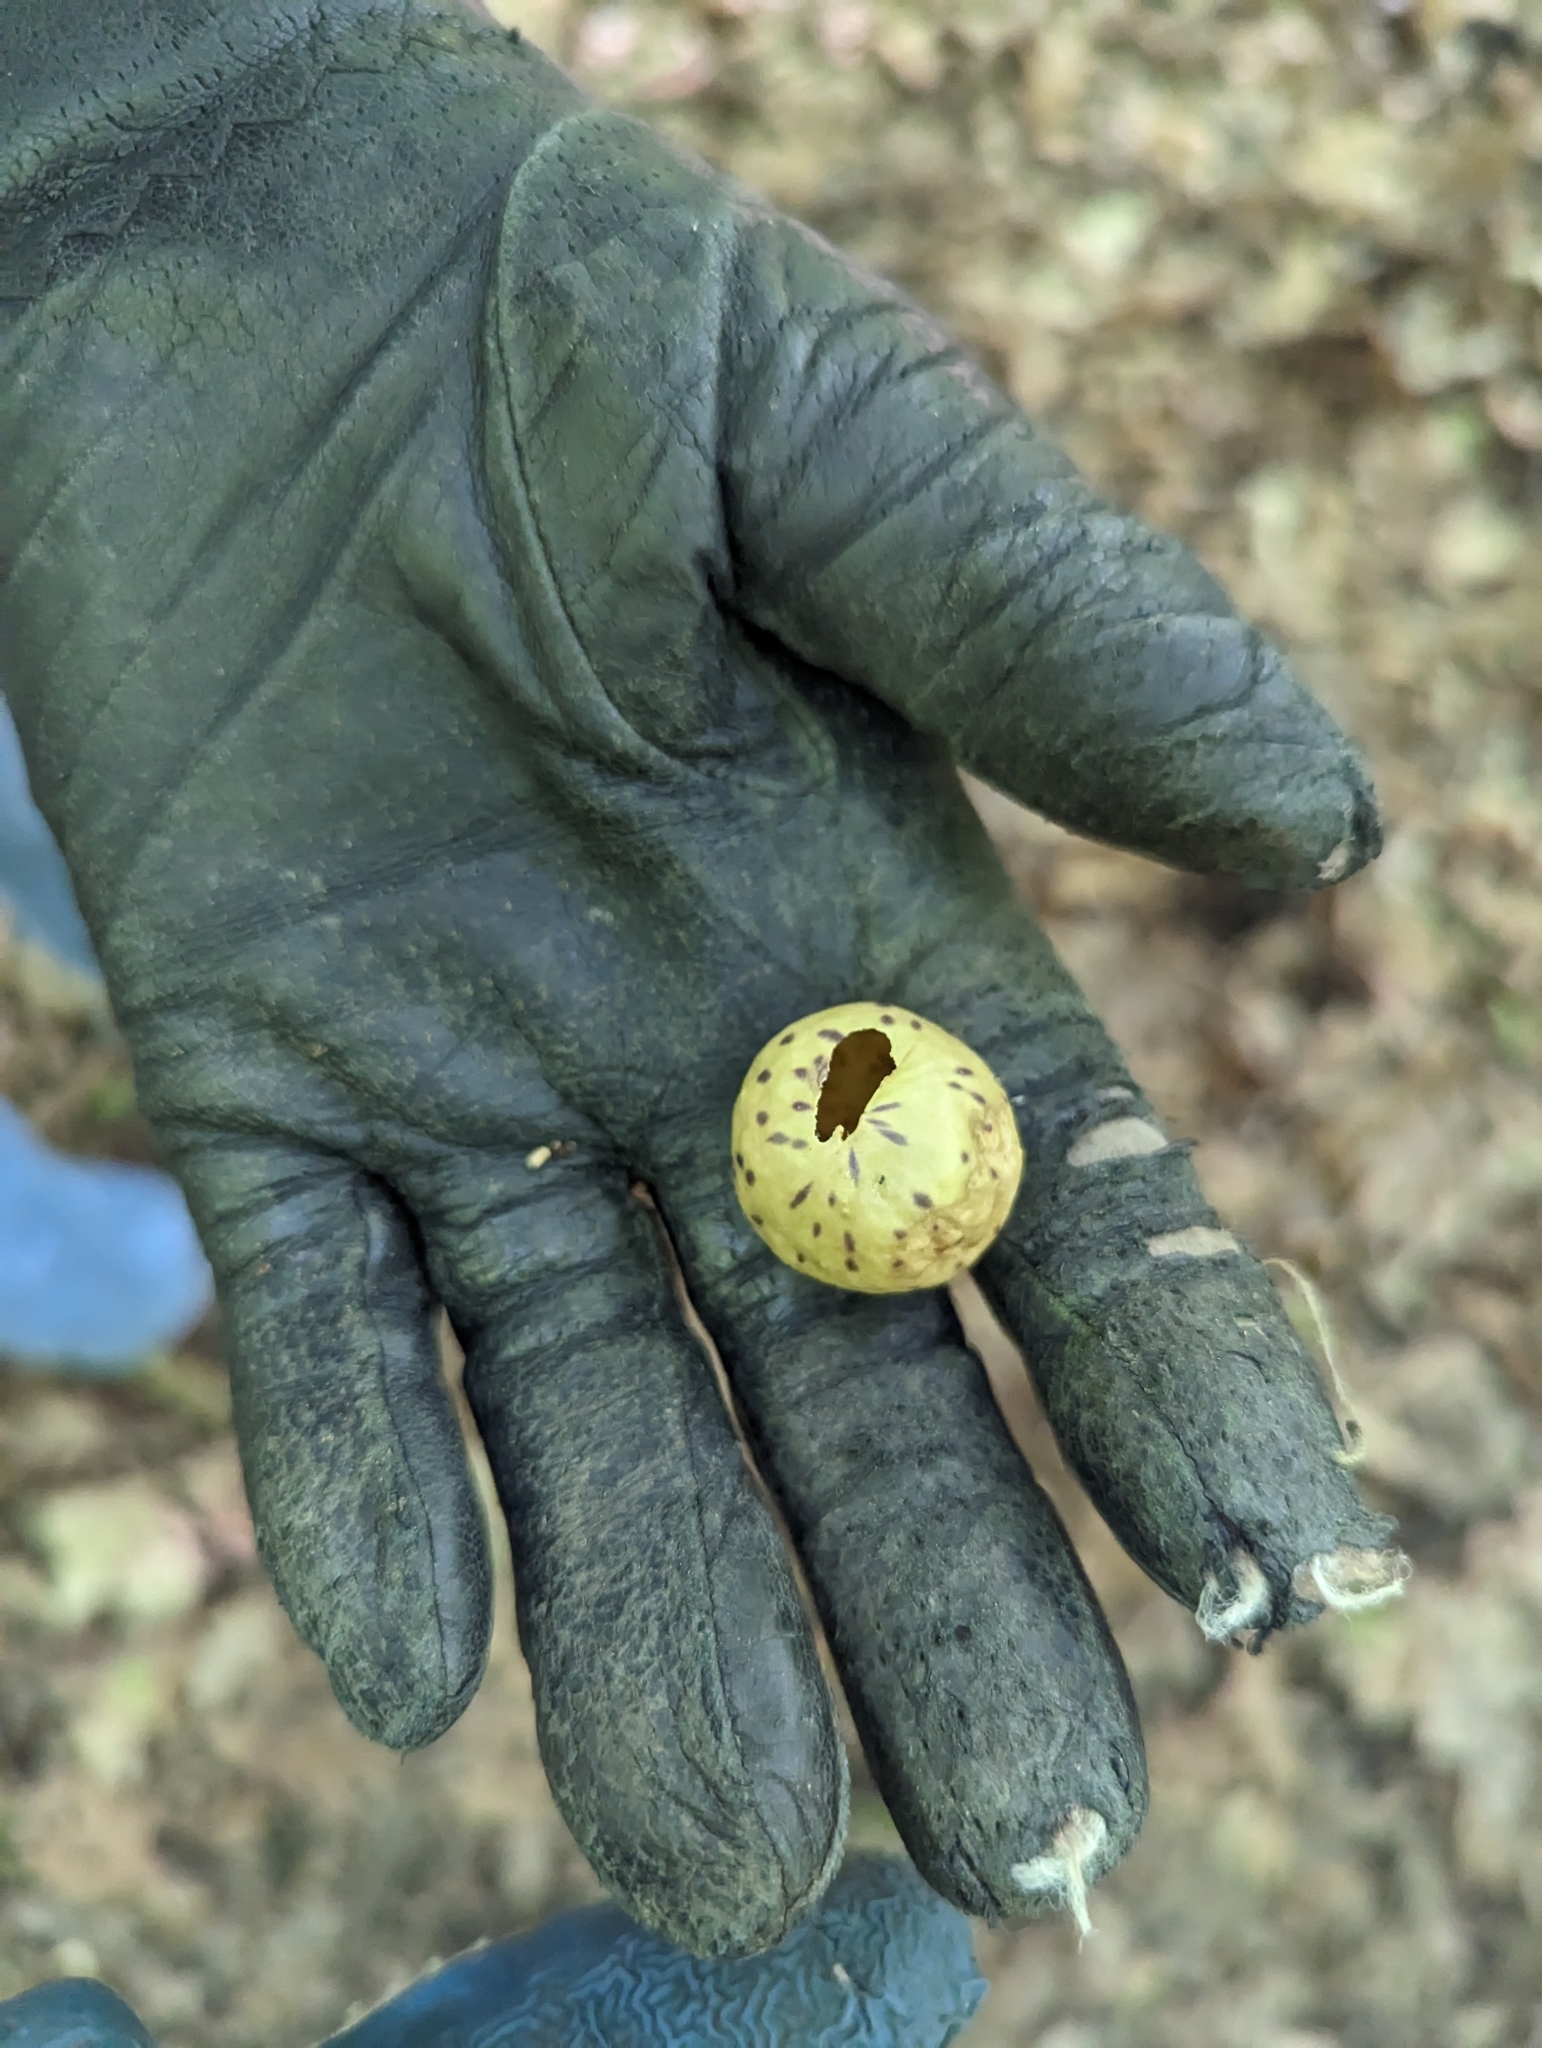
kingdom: Animalia
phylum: Arthropoda
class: Insecta
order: Hymenoptera
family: Cynipidae
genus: Amphibolips
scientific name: Amphibolips
